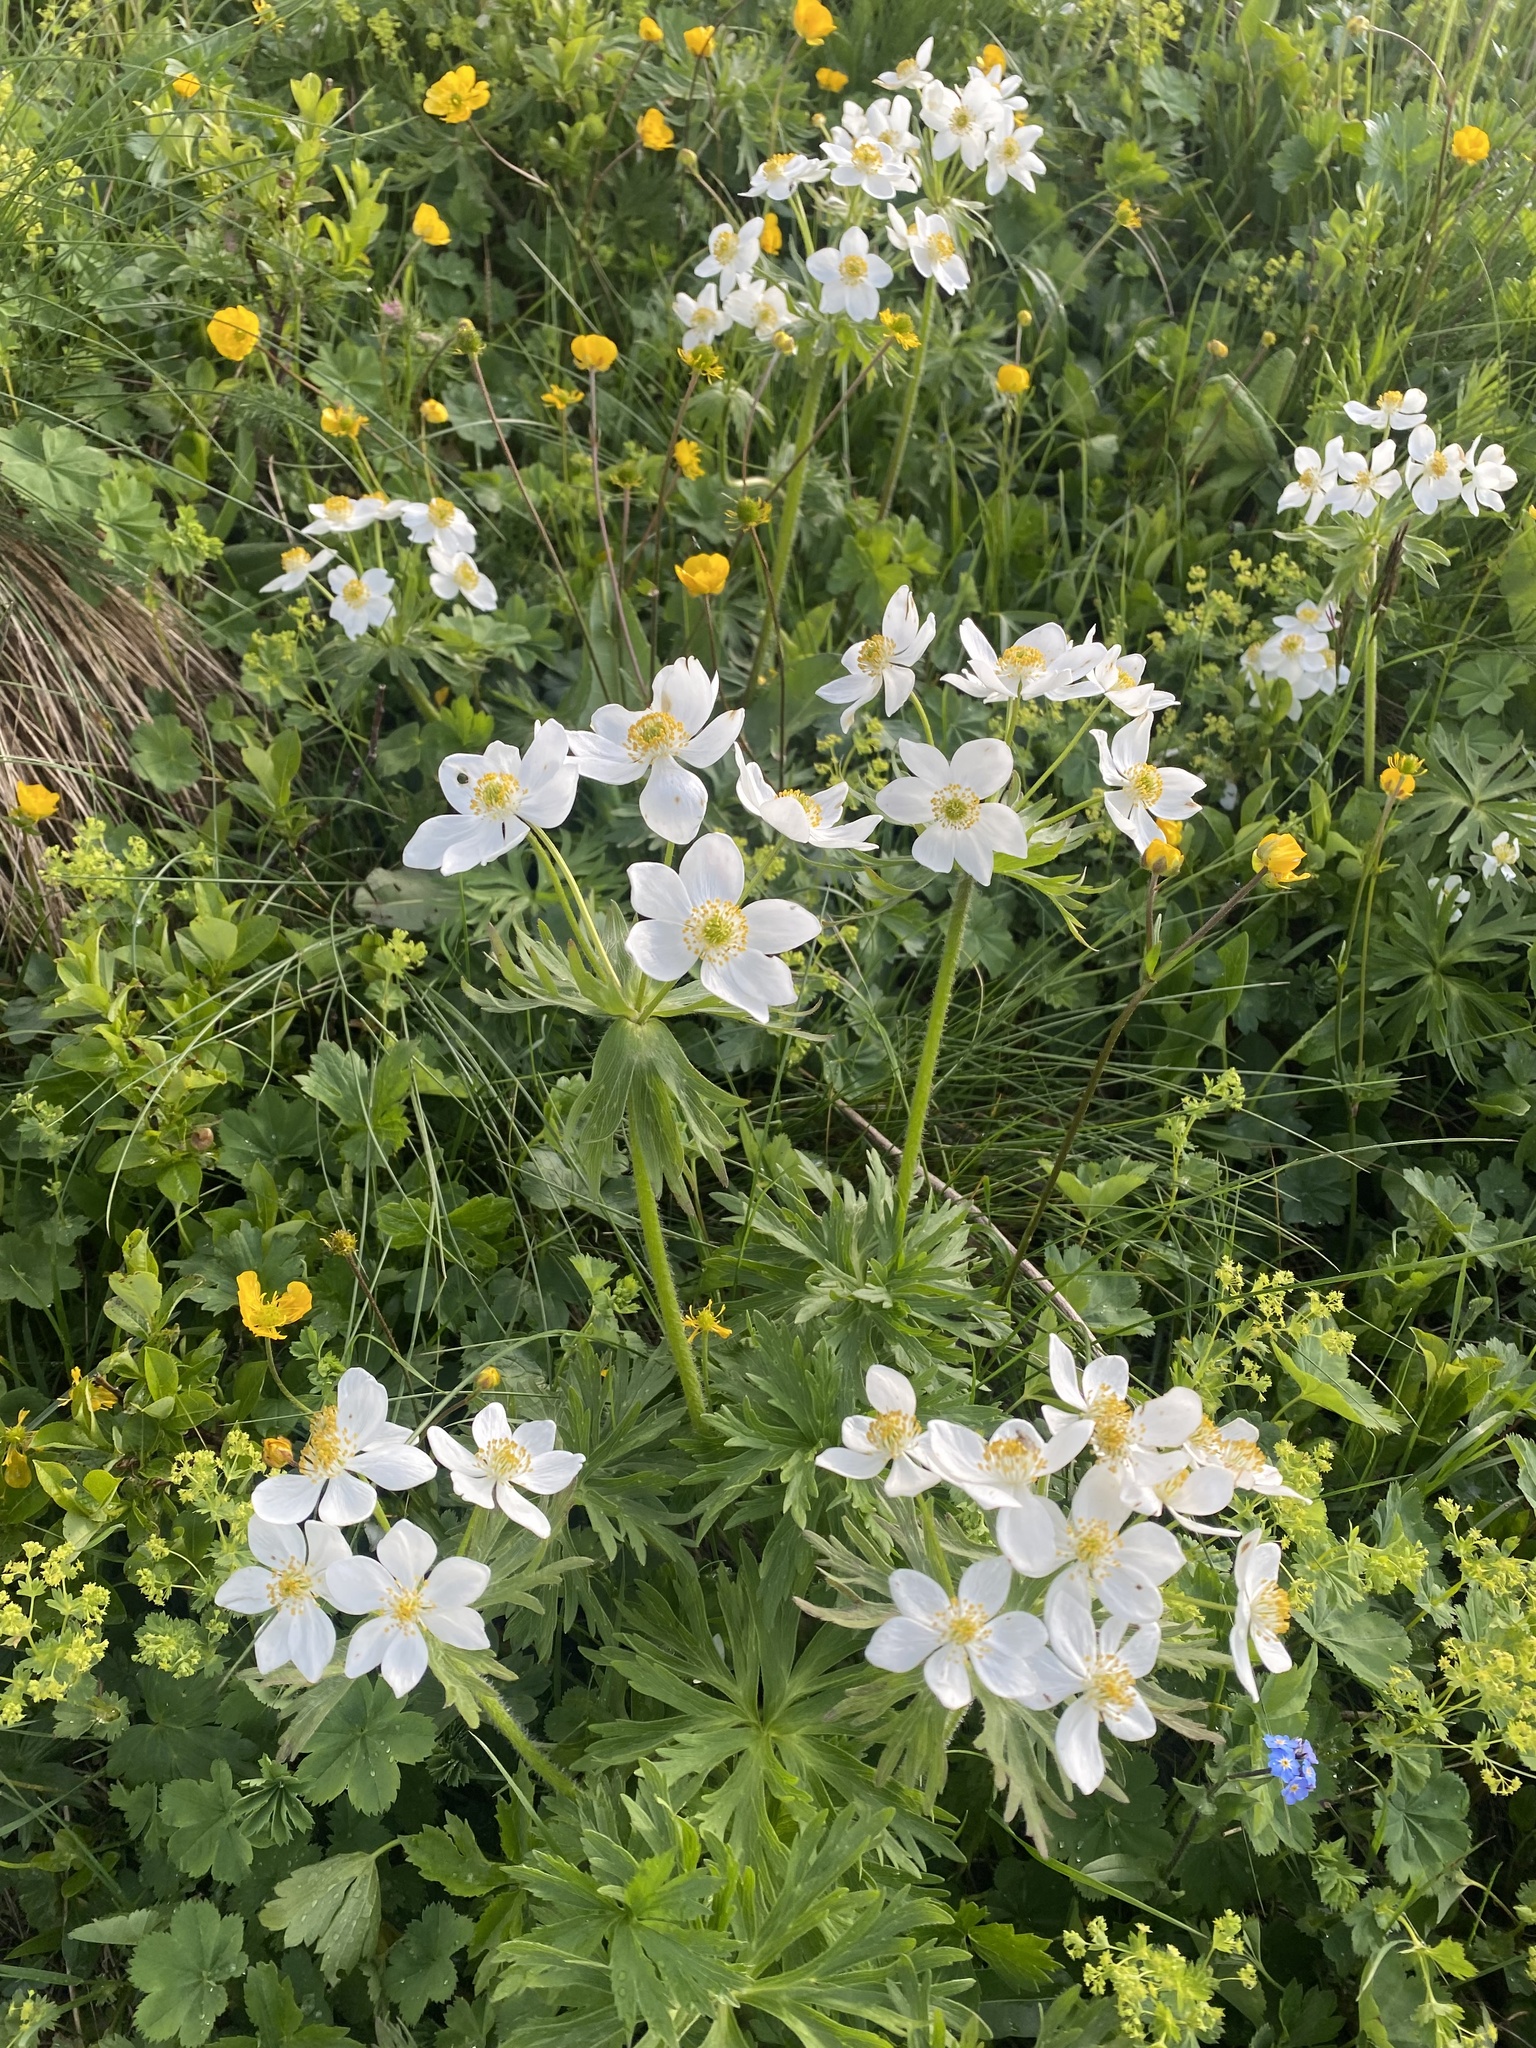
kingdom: Plantae
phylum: Tracheophyta
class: Magnoliopsida
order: Ranunculales
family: Ranunculaceae
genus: Anemonastrum
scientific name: Anemonastrum narcissiflorum
